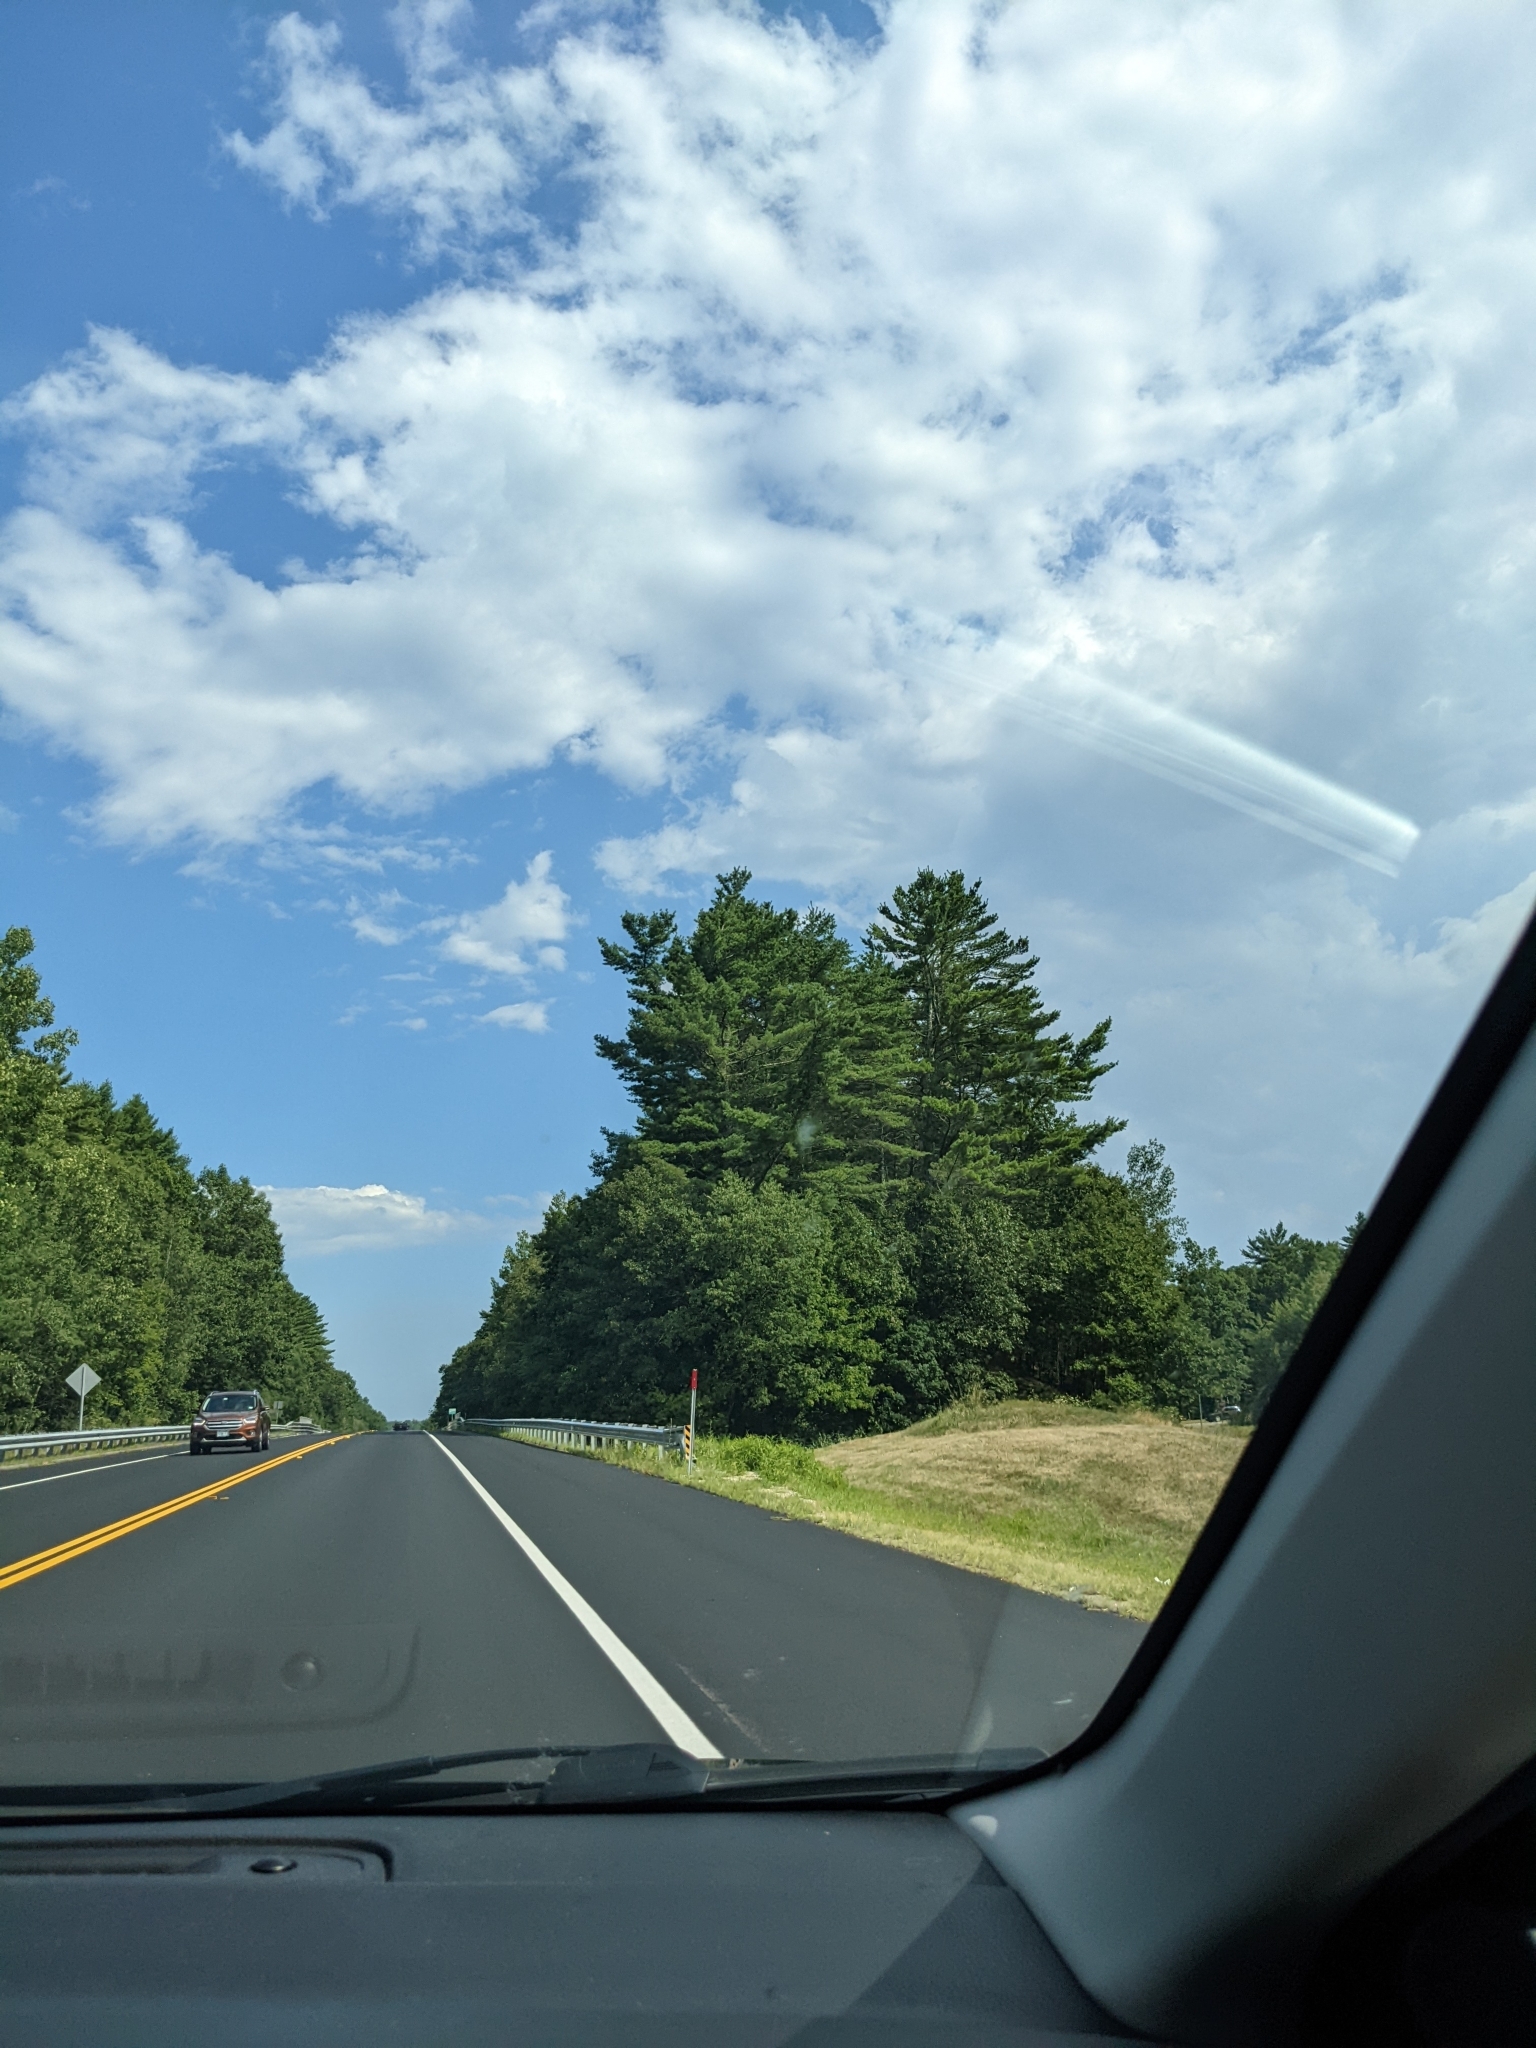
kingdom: Plantae
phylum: Tracheophyta
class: Pinopsida
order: Pinales
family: Pinaceae
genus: Pinus
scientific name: Pinus strobus
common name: Weymouth pine
